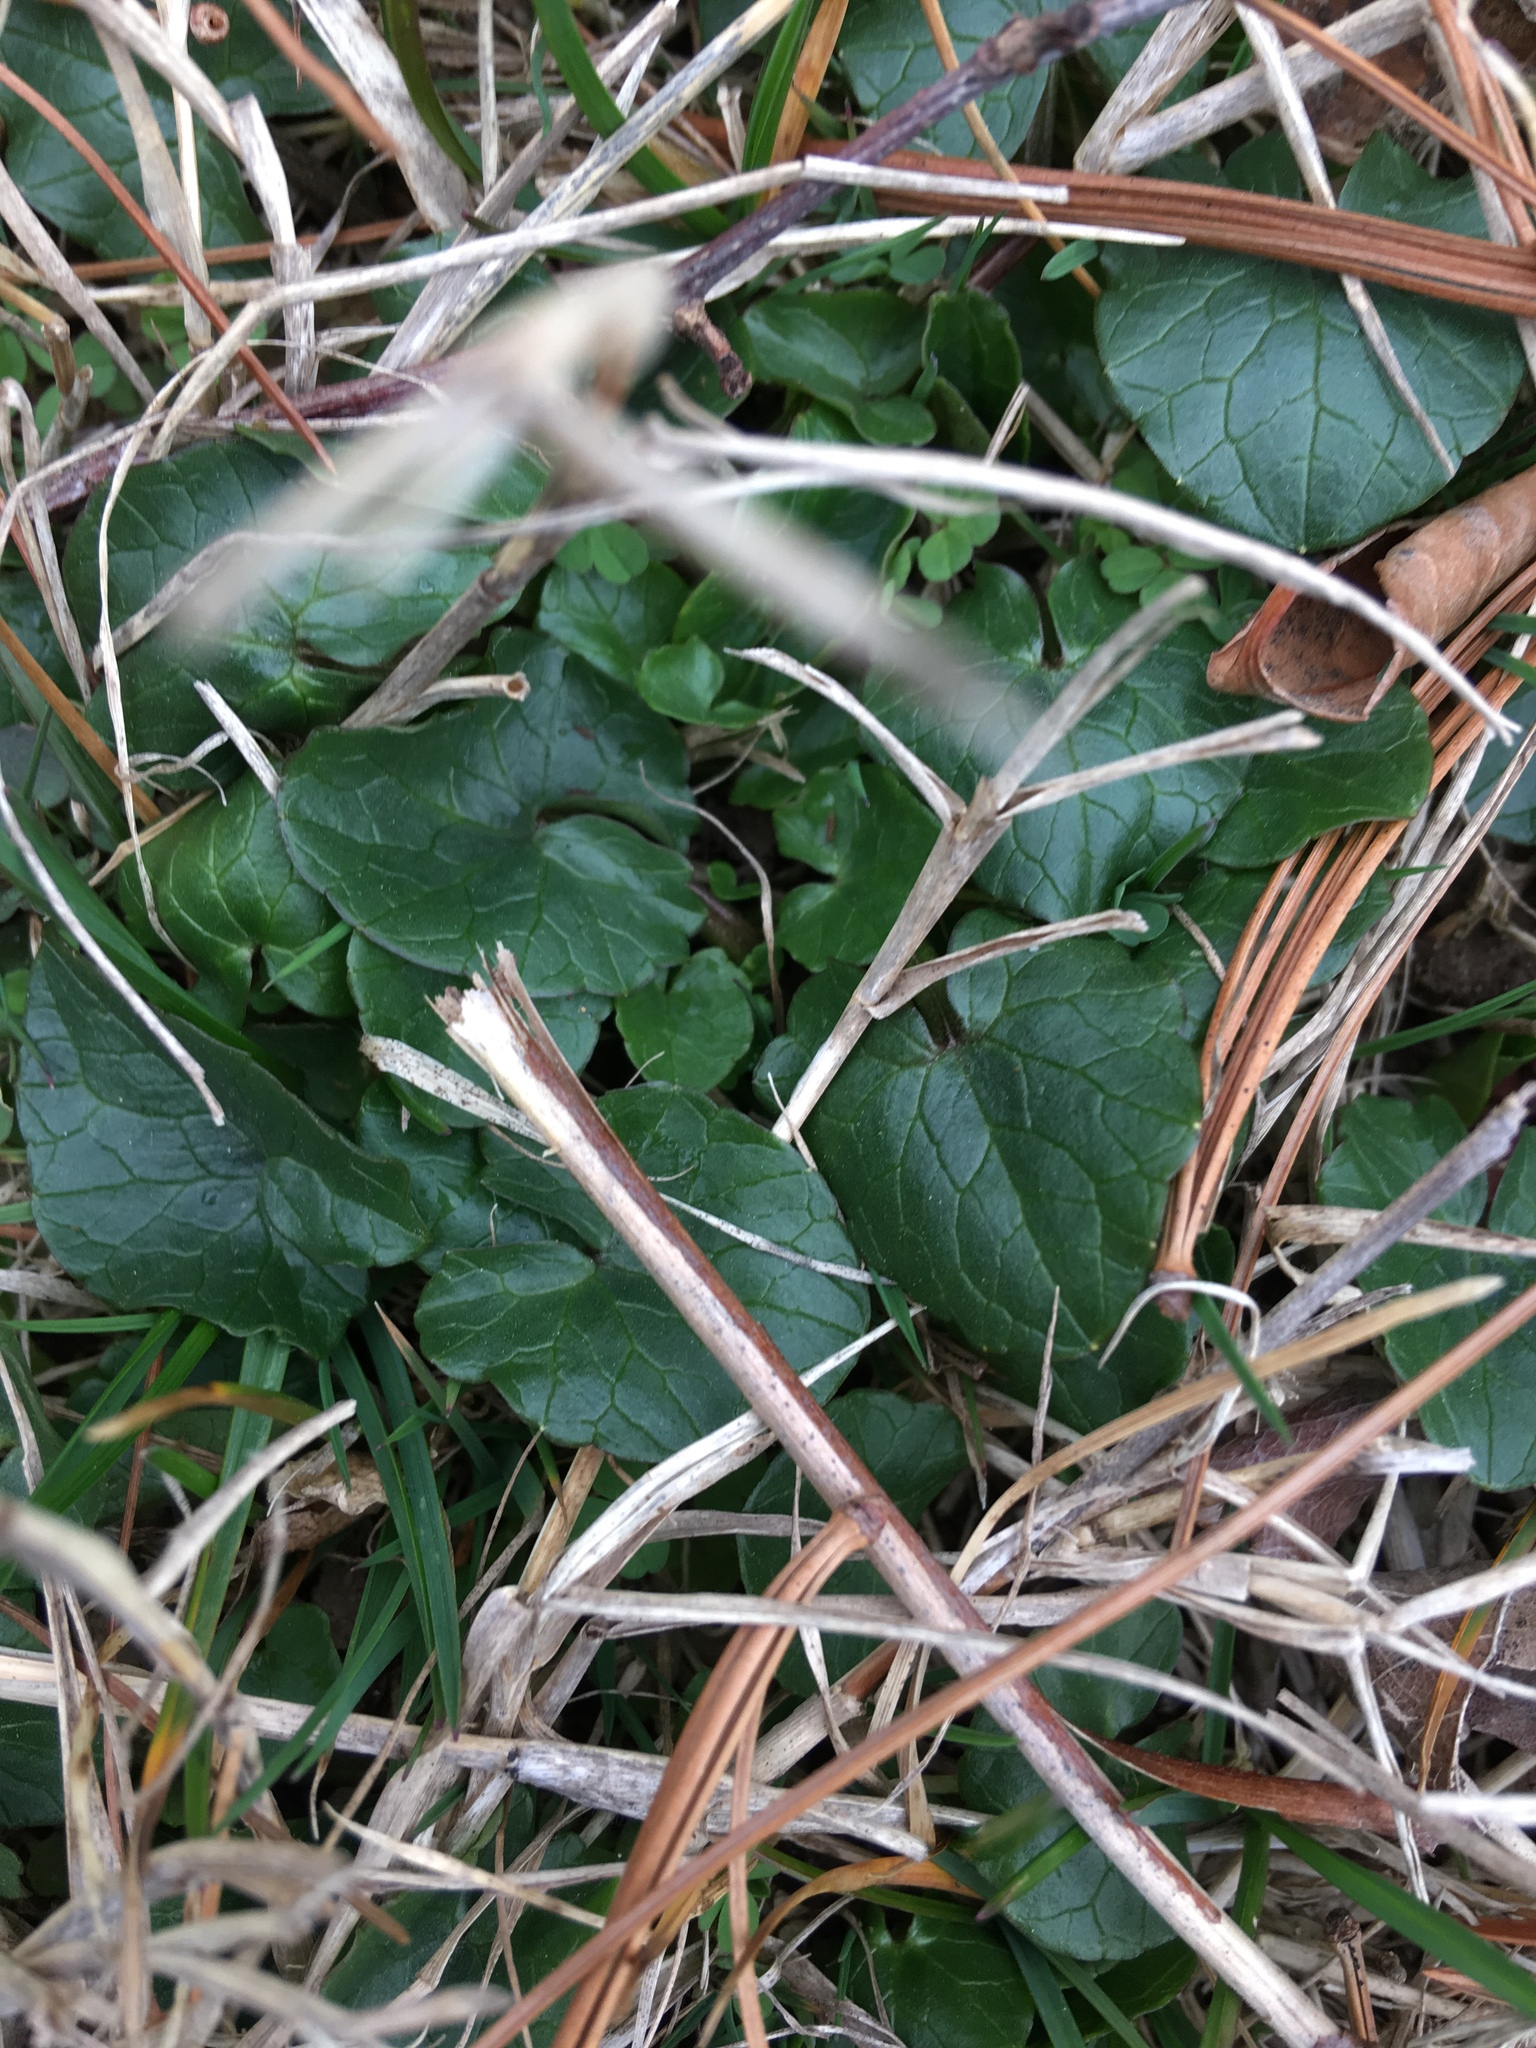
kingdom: Plantae
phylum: Tracheophyta
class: Magnoliopsida
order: Ranunculales
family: Ranunculaceae
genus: Ficaria
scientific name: Ficaria verna
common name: Lesser celandine
